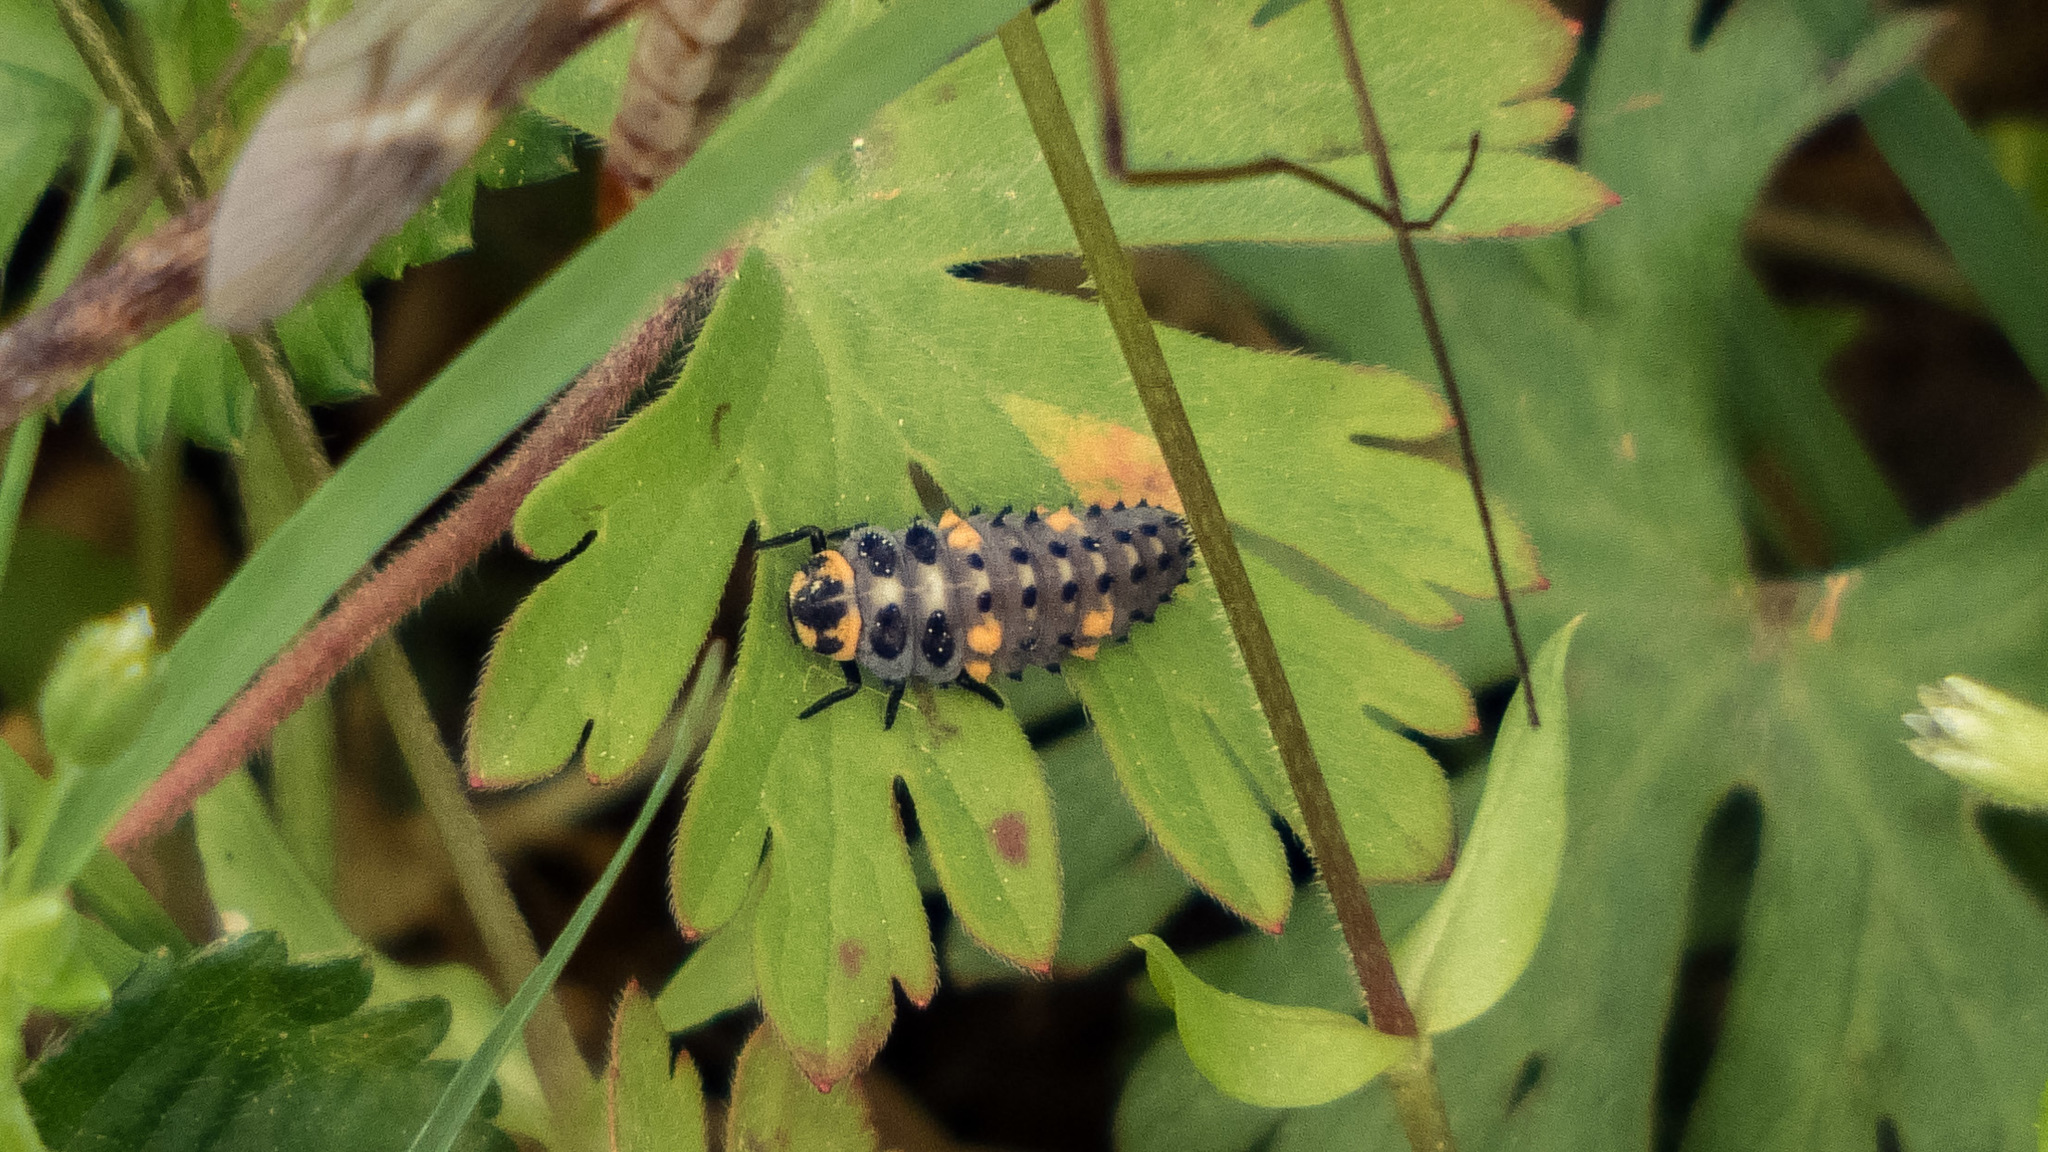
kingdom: Animalia
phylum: Arthropoda
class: Insecta
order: Coleoptera
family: Coccinellidae
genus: Coccinella
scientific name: Coccinella septempunctata
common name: Sevenspotted lady beetle
